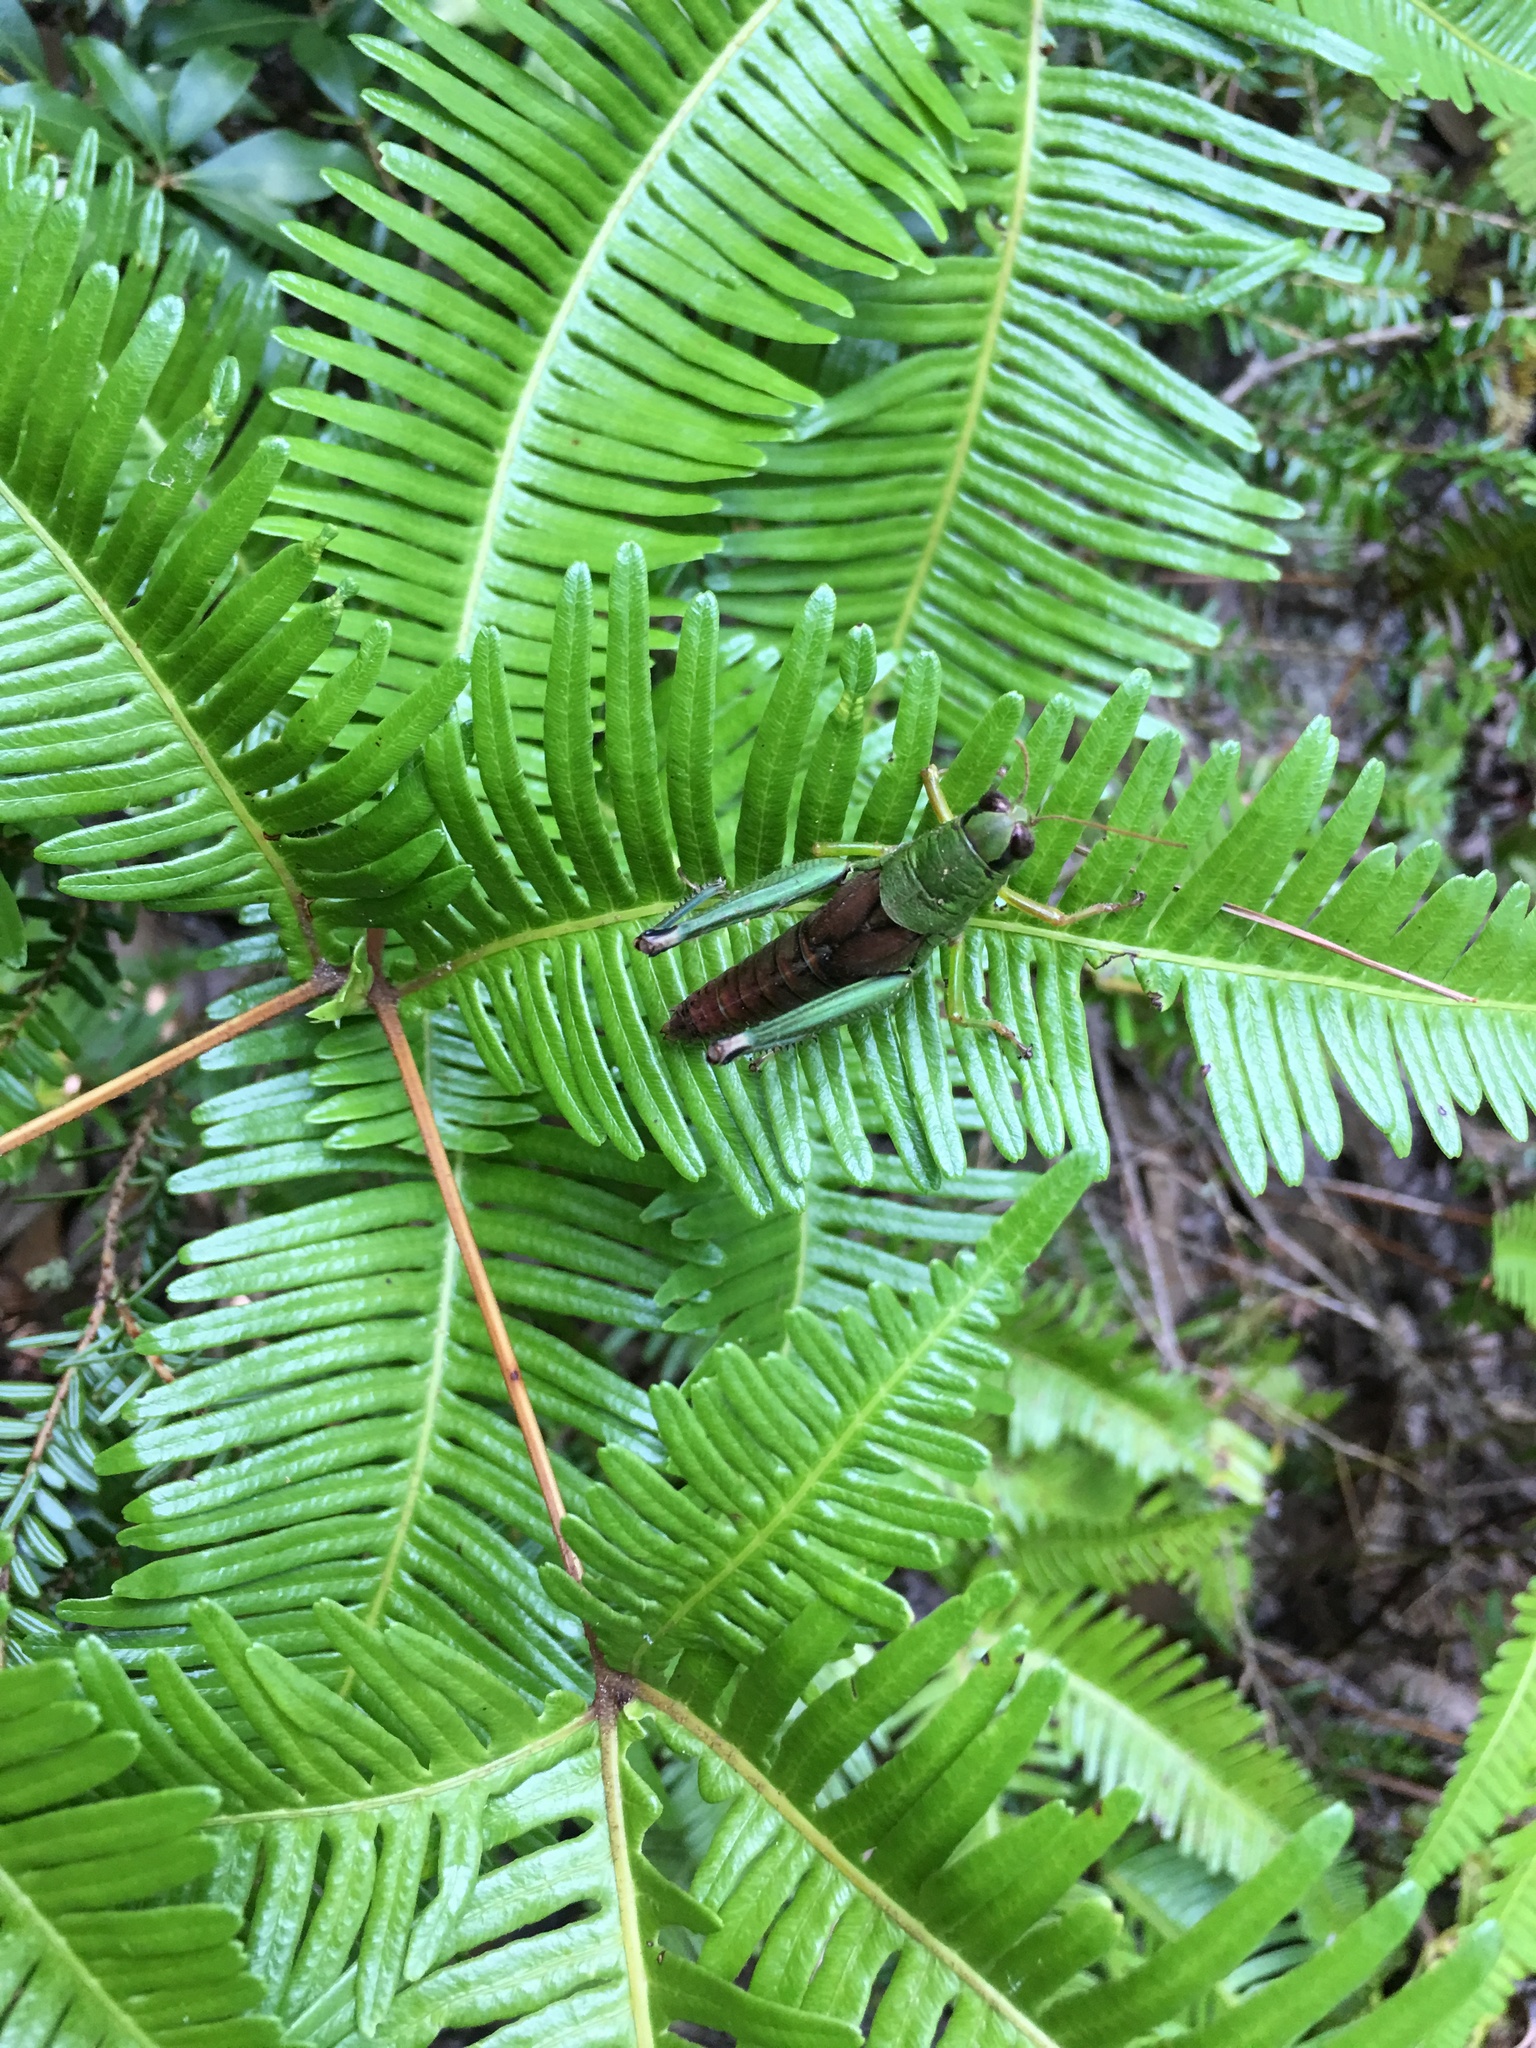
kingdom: Animalia
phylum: Arthropoda
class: Insecta
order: Orthoptera
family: Acrididae
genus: Parapodisma
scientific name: Parapodisma setouchiensis
